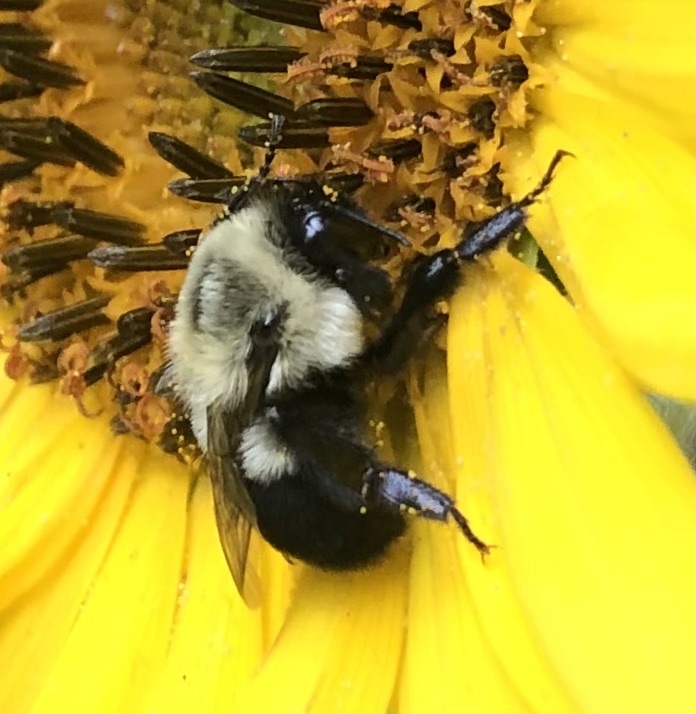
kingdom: Animalia
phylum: Arthropoda
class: Insecta
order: Hymenoptera
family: Apidae
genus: Bombus
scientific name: Bombus impatiens
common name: Common eastern bumble bee
